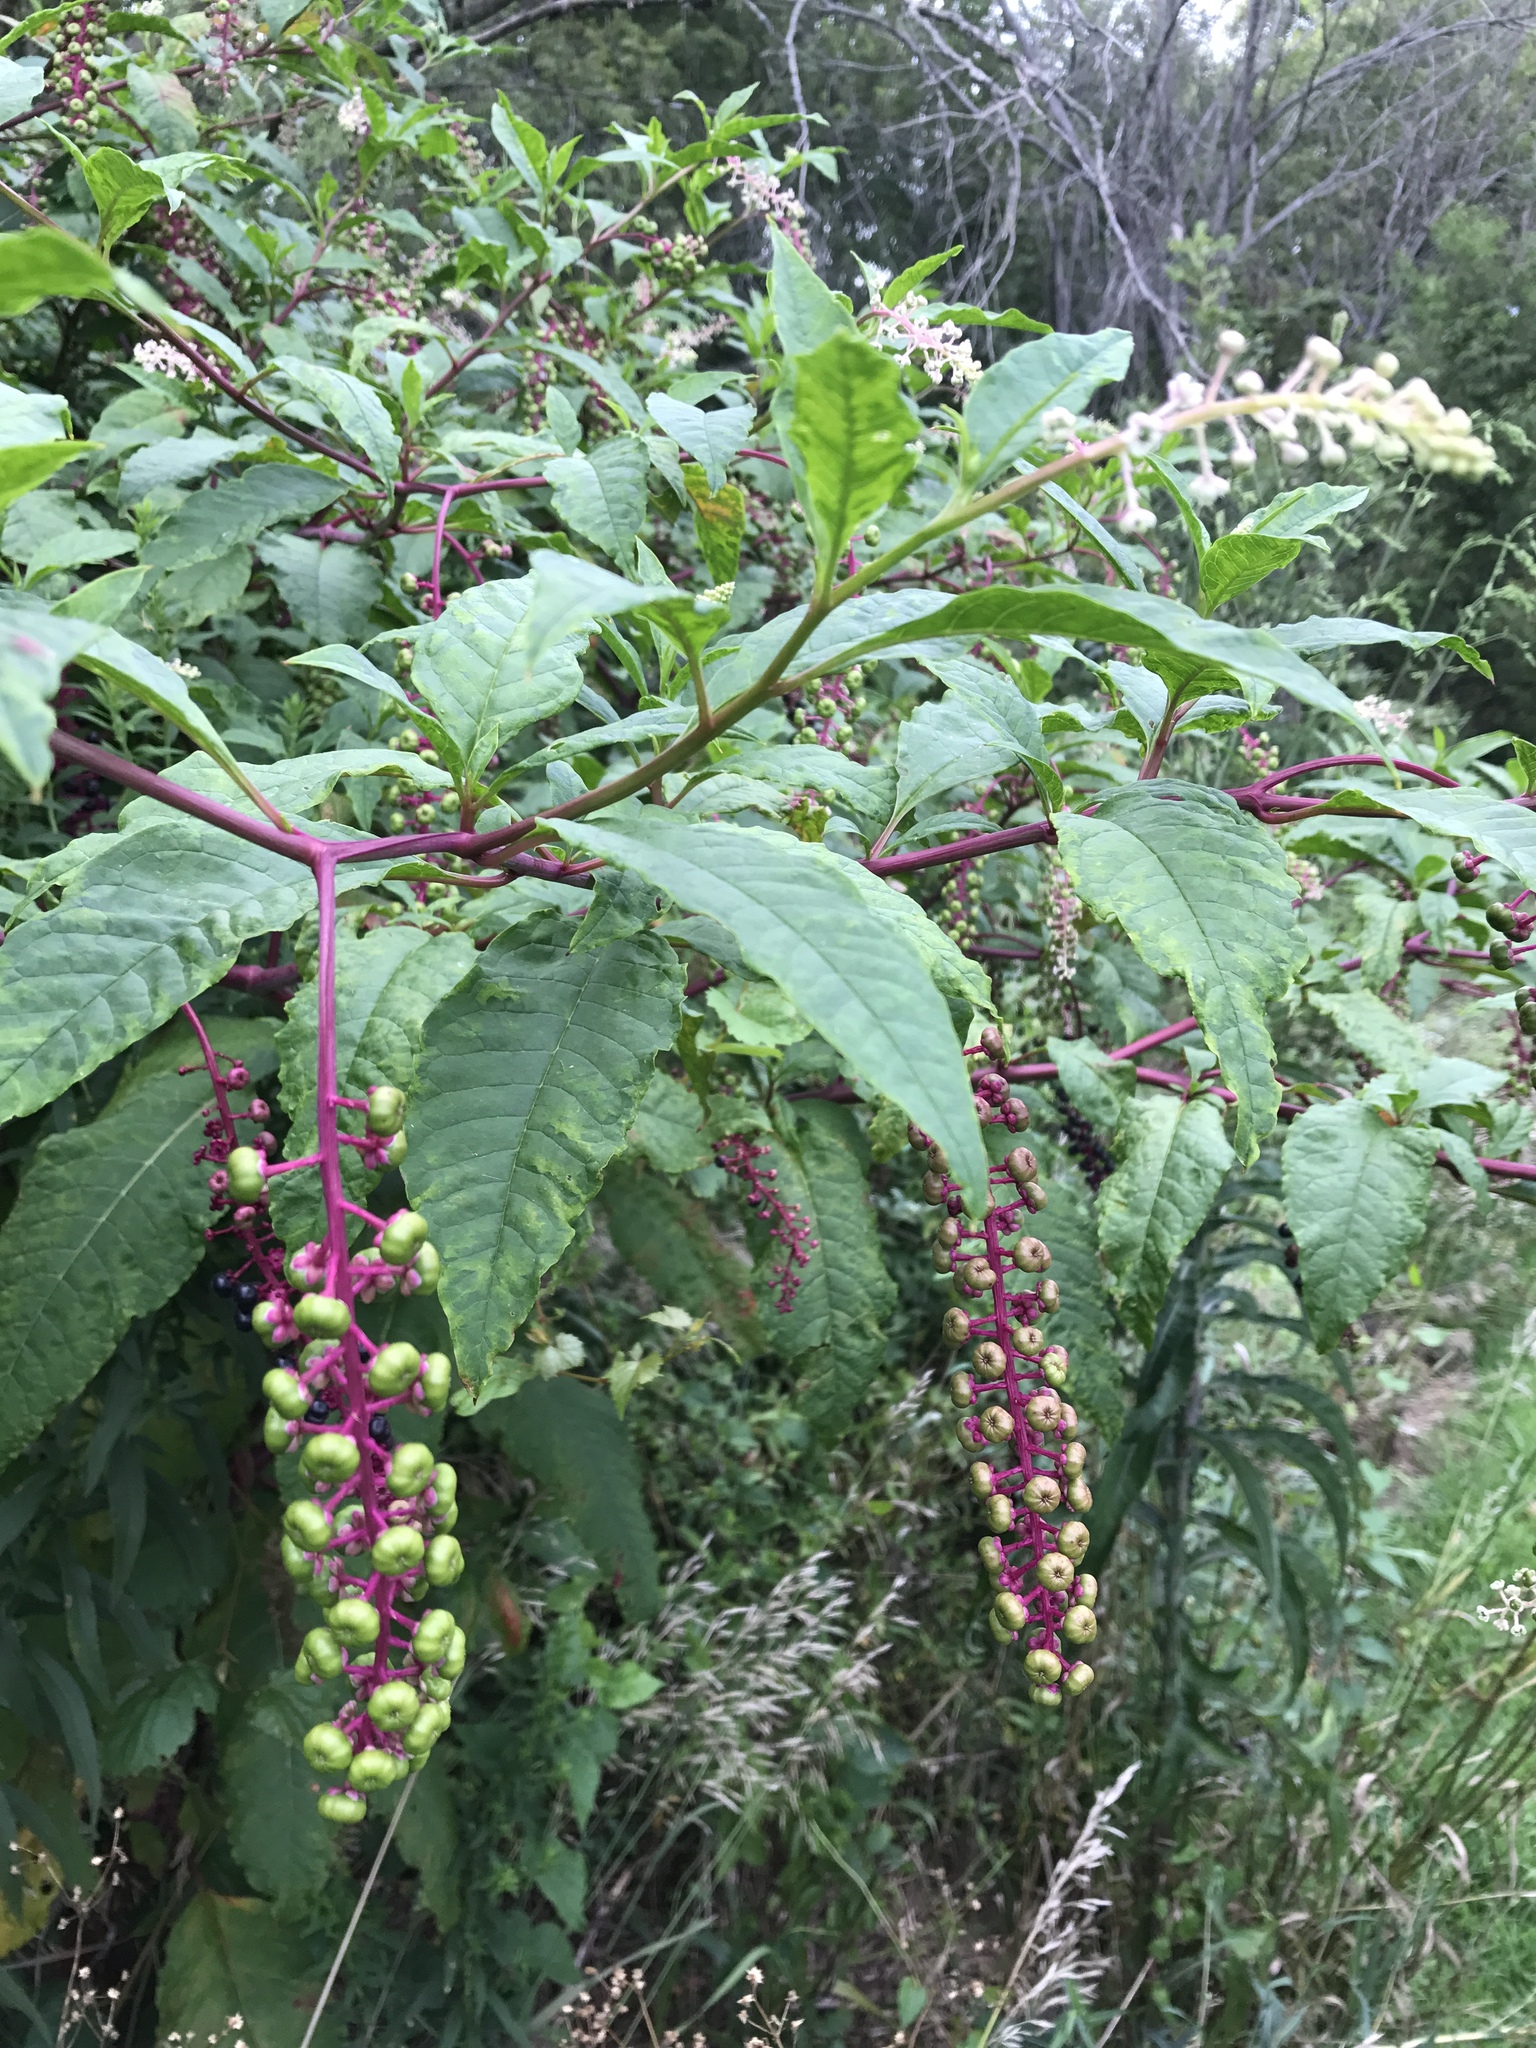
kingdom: Plantae
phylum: Tracheophyta
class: Magnoliopsida
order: Caryophyllales
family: Phytolaccaceae
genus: Phytolacca
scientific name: Phytolacca americana
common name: American pokeweed
